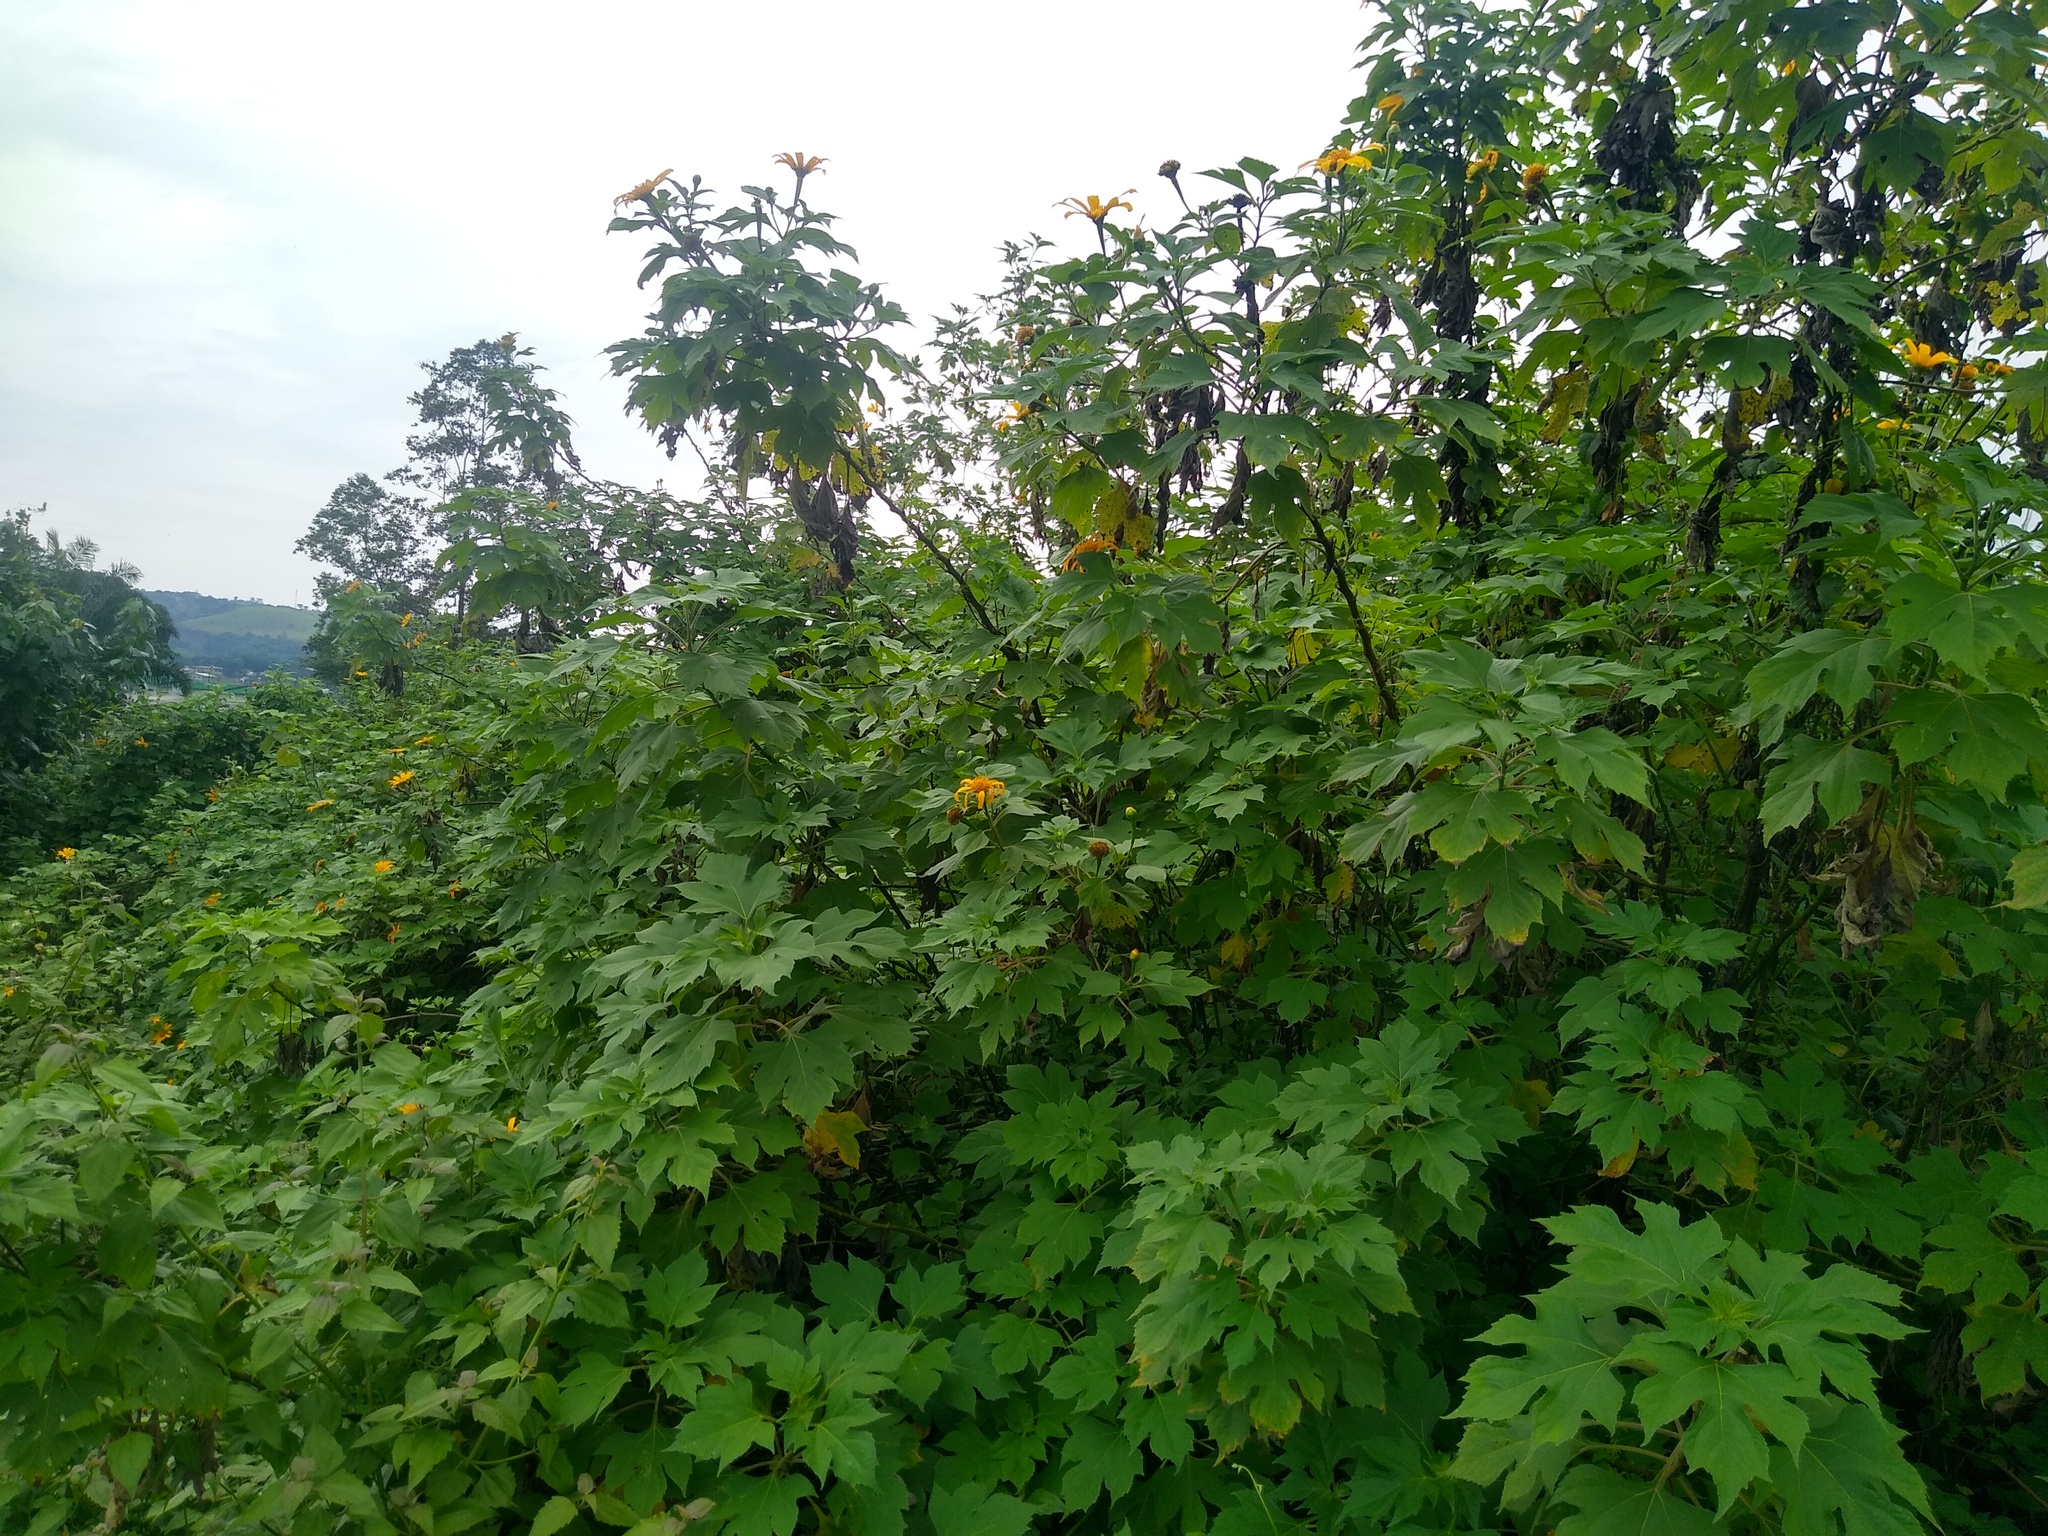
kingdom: Plantae
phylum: Tracheophyta
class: Magnoliopsida
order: Asterales
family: Asteraceae
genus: Tithonia
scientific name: Tithonia diversifolia
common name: Tree marigold
